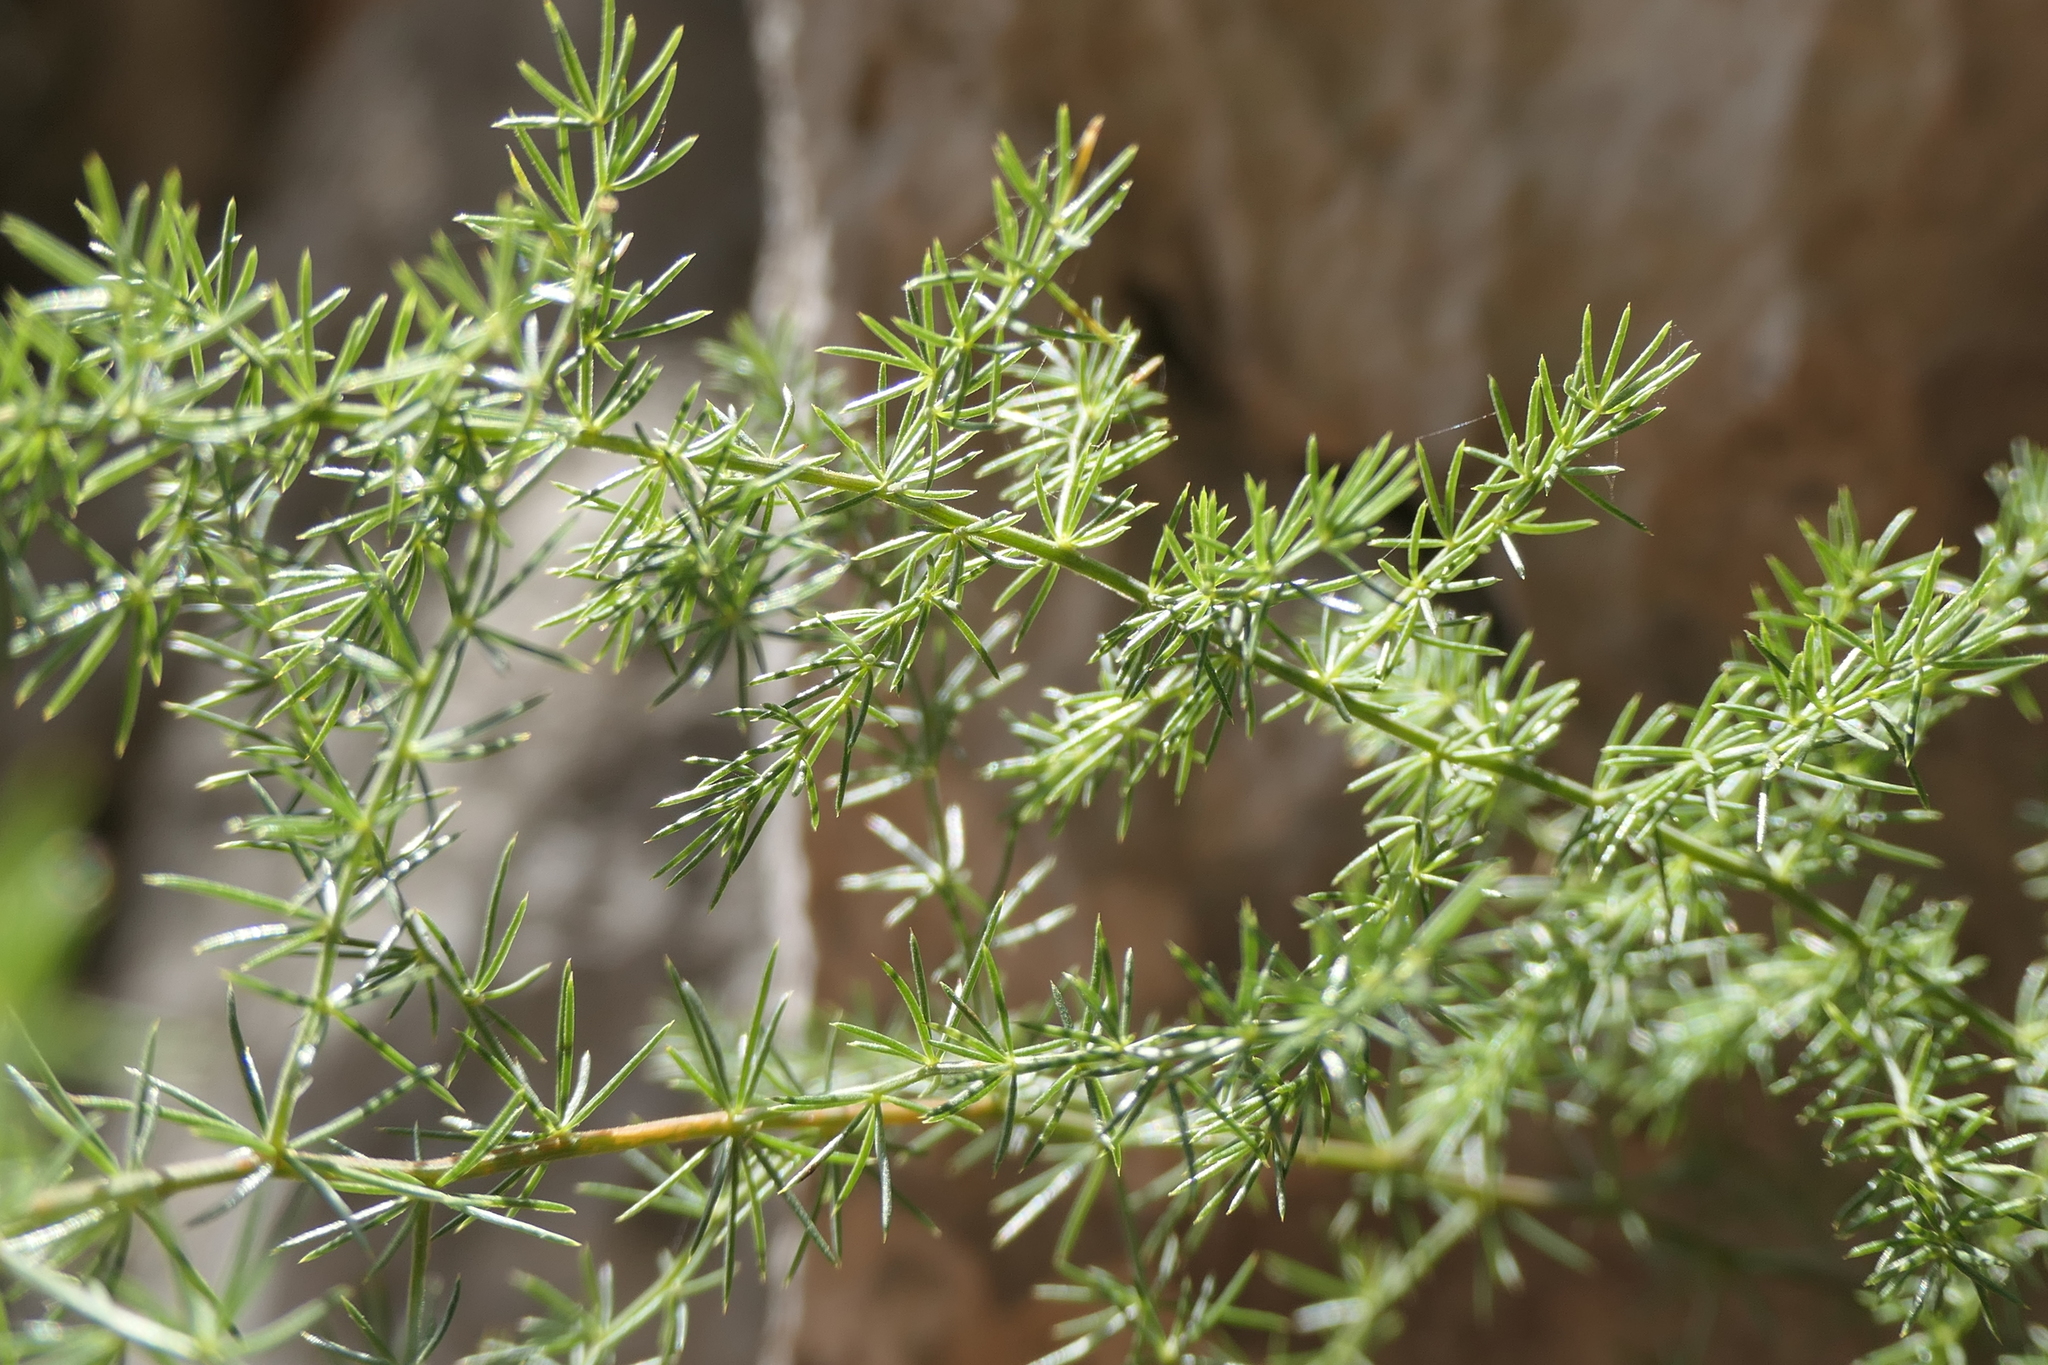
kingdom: Plantae
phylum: Tracheophyta
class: Liliopsida
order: Asparagales
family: Asparagaceae
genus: Asparagus
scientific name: Asparagus acutifolius
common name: Wild asparagus
